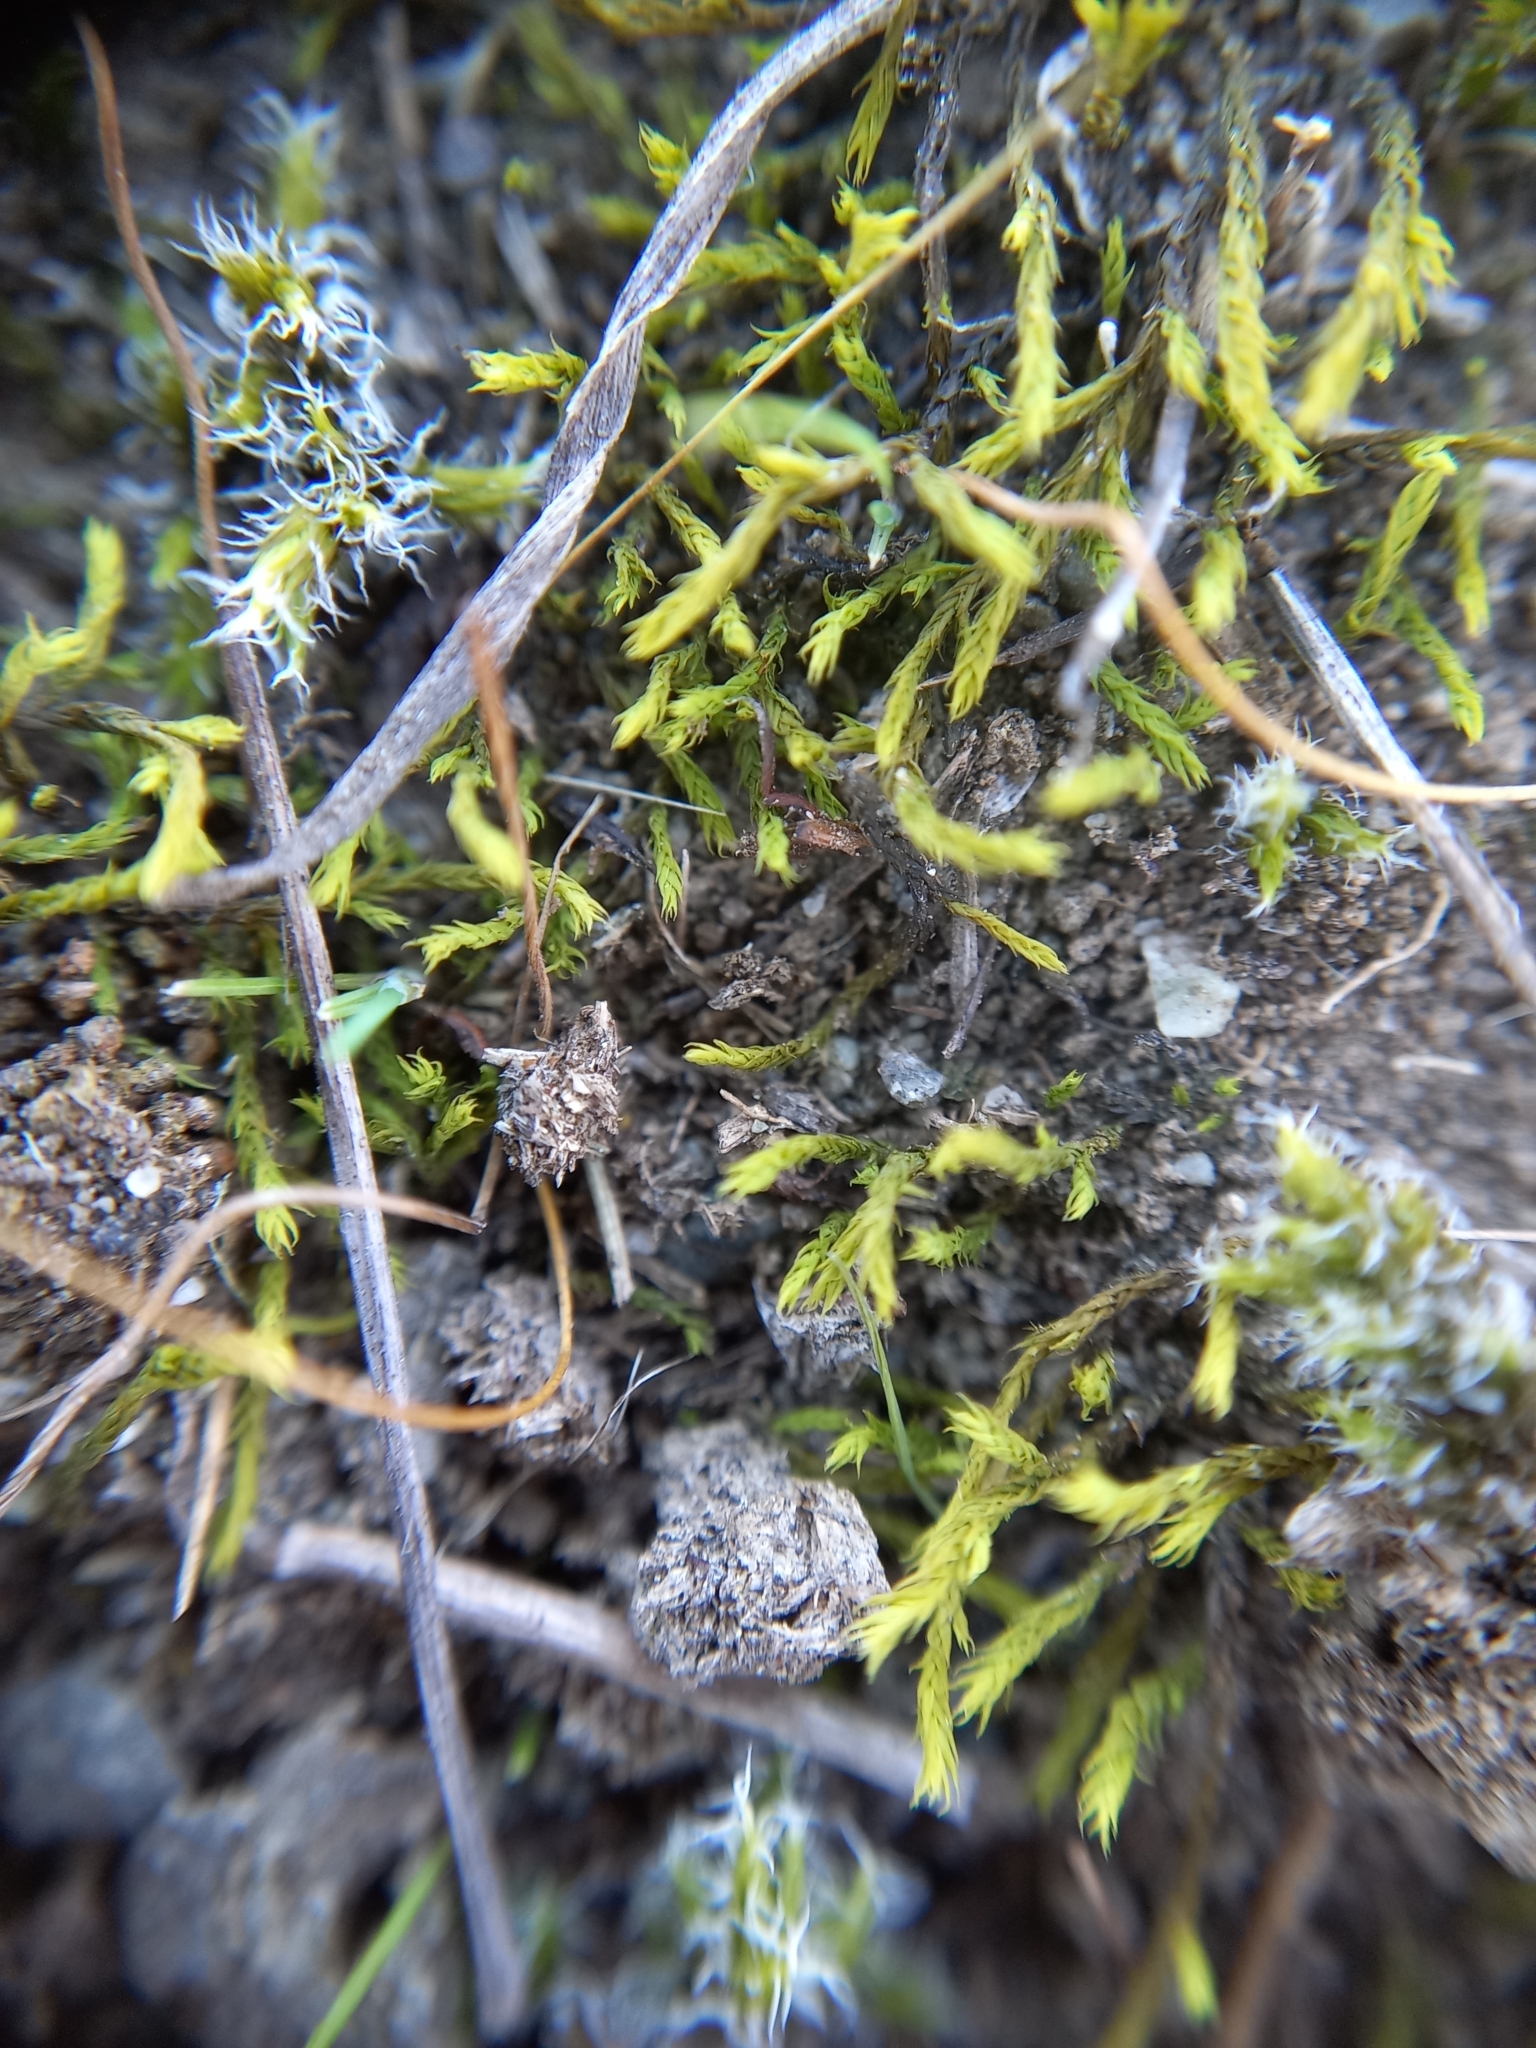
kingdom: Plantae
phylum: Bryophyta
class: Bryopsida
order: Pottiales
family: Pottiaceae
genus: Triquetrella
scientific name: Triquetrella papillata
